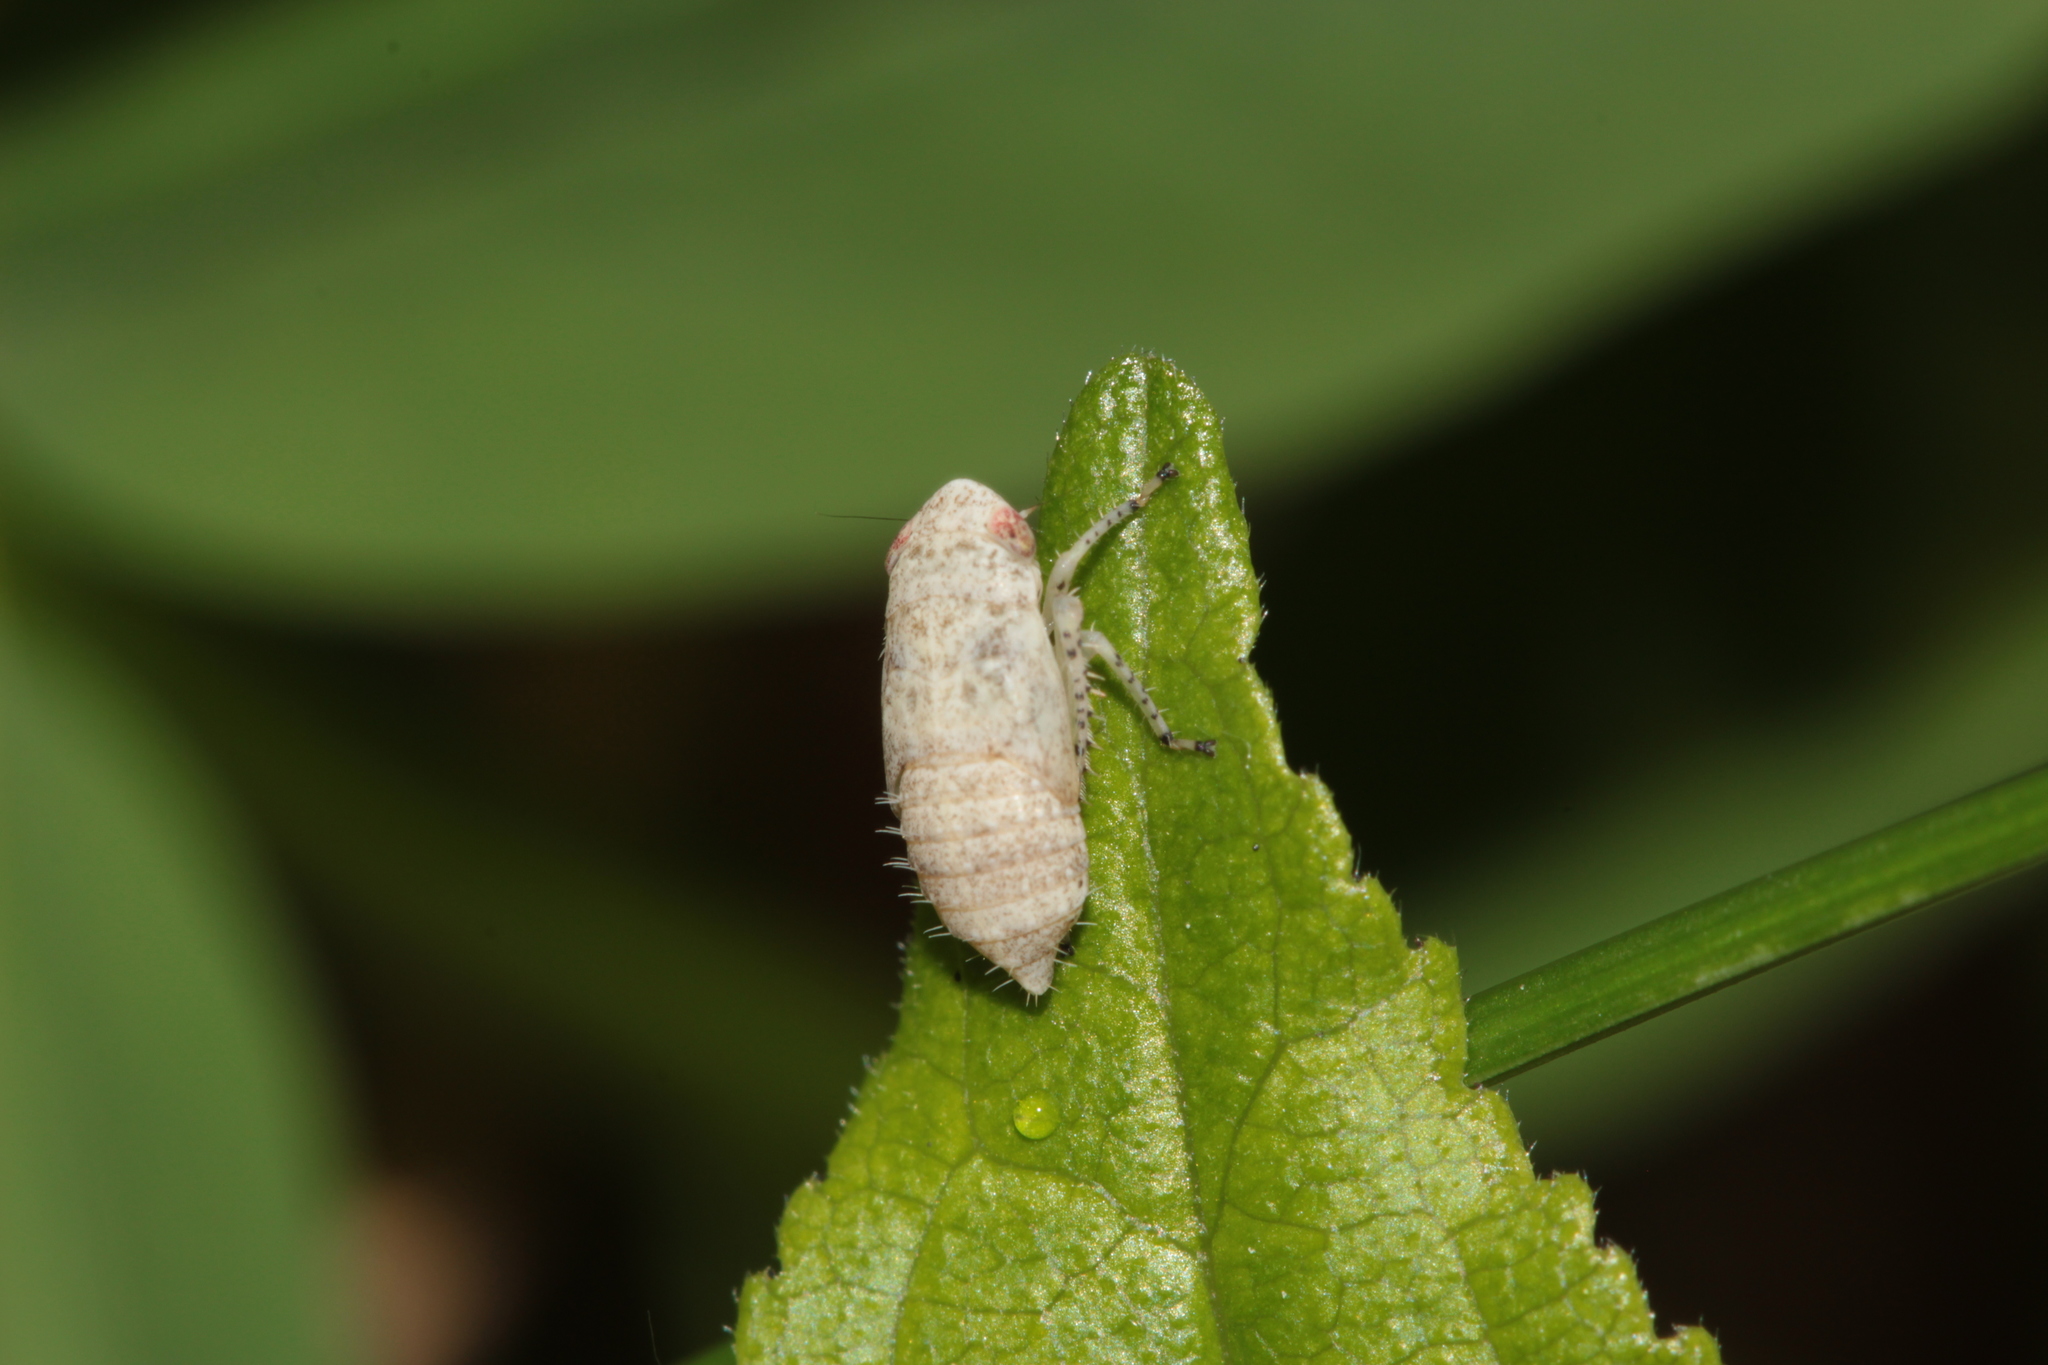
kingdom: Animalia
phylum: Arthropoda
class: Insecta
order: Hemiptera
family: Cicadellidae
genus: Allygidius
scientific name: Allygidius atomarius
